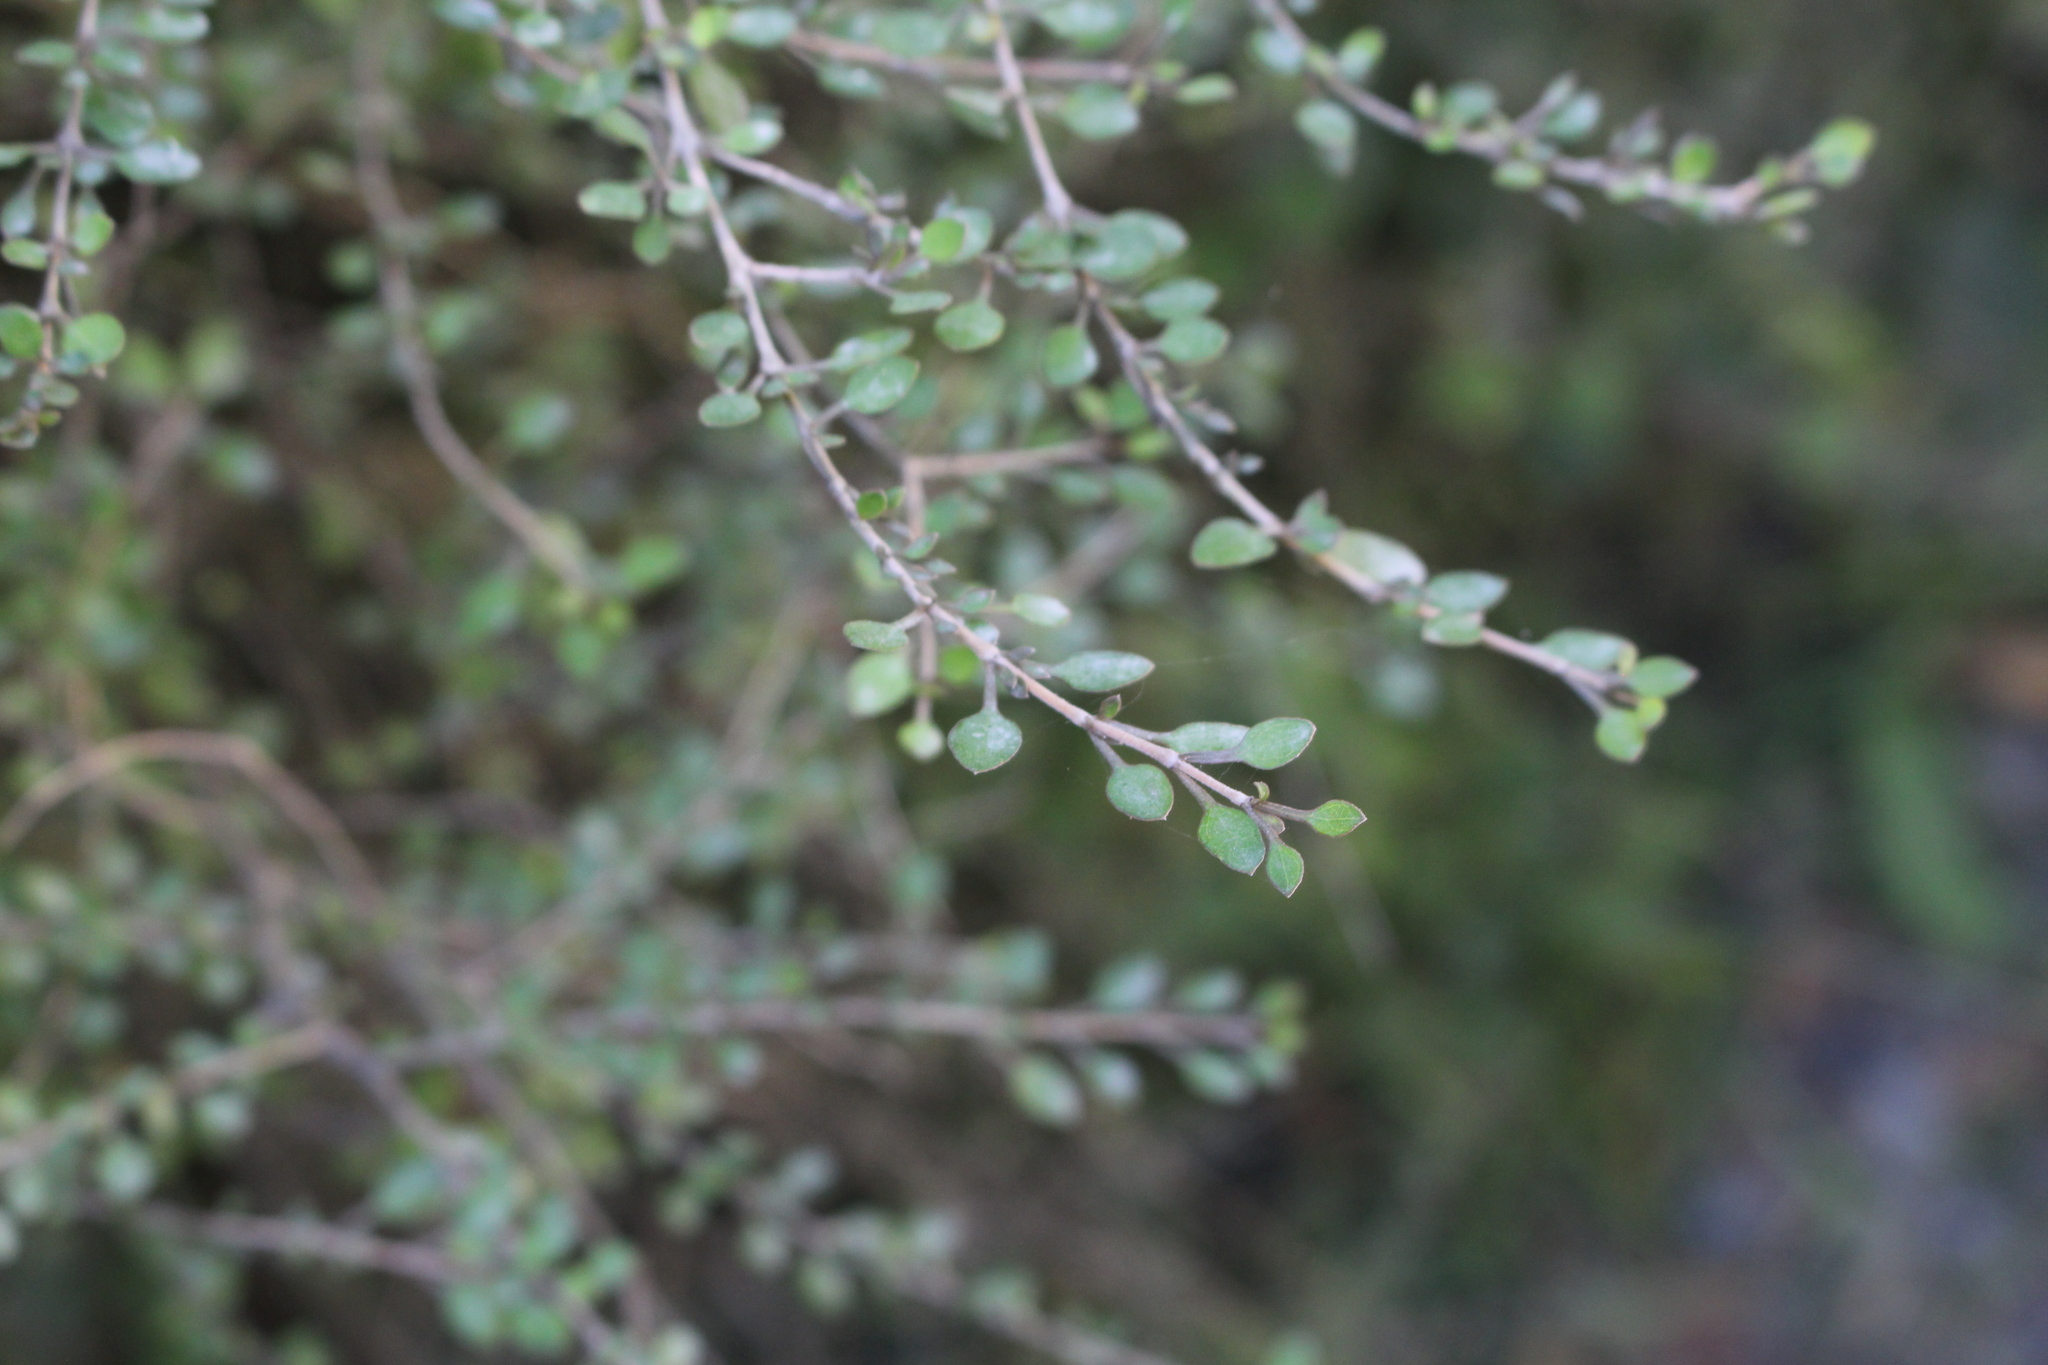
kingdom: Plantae
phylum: Tracheophyta
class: Magnoliopsida
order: Gentianales
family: Rubiaceae
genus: Coprosma
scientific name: Coprosma virescens
